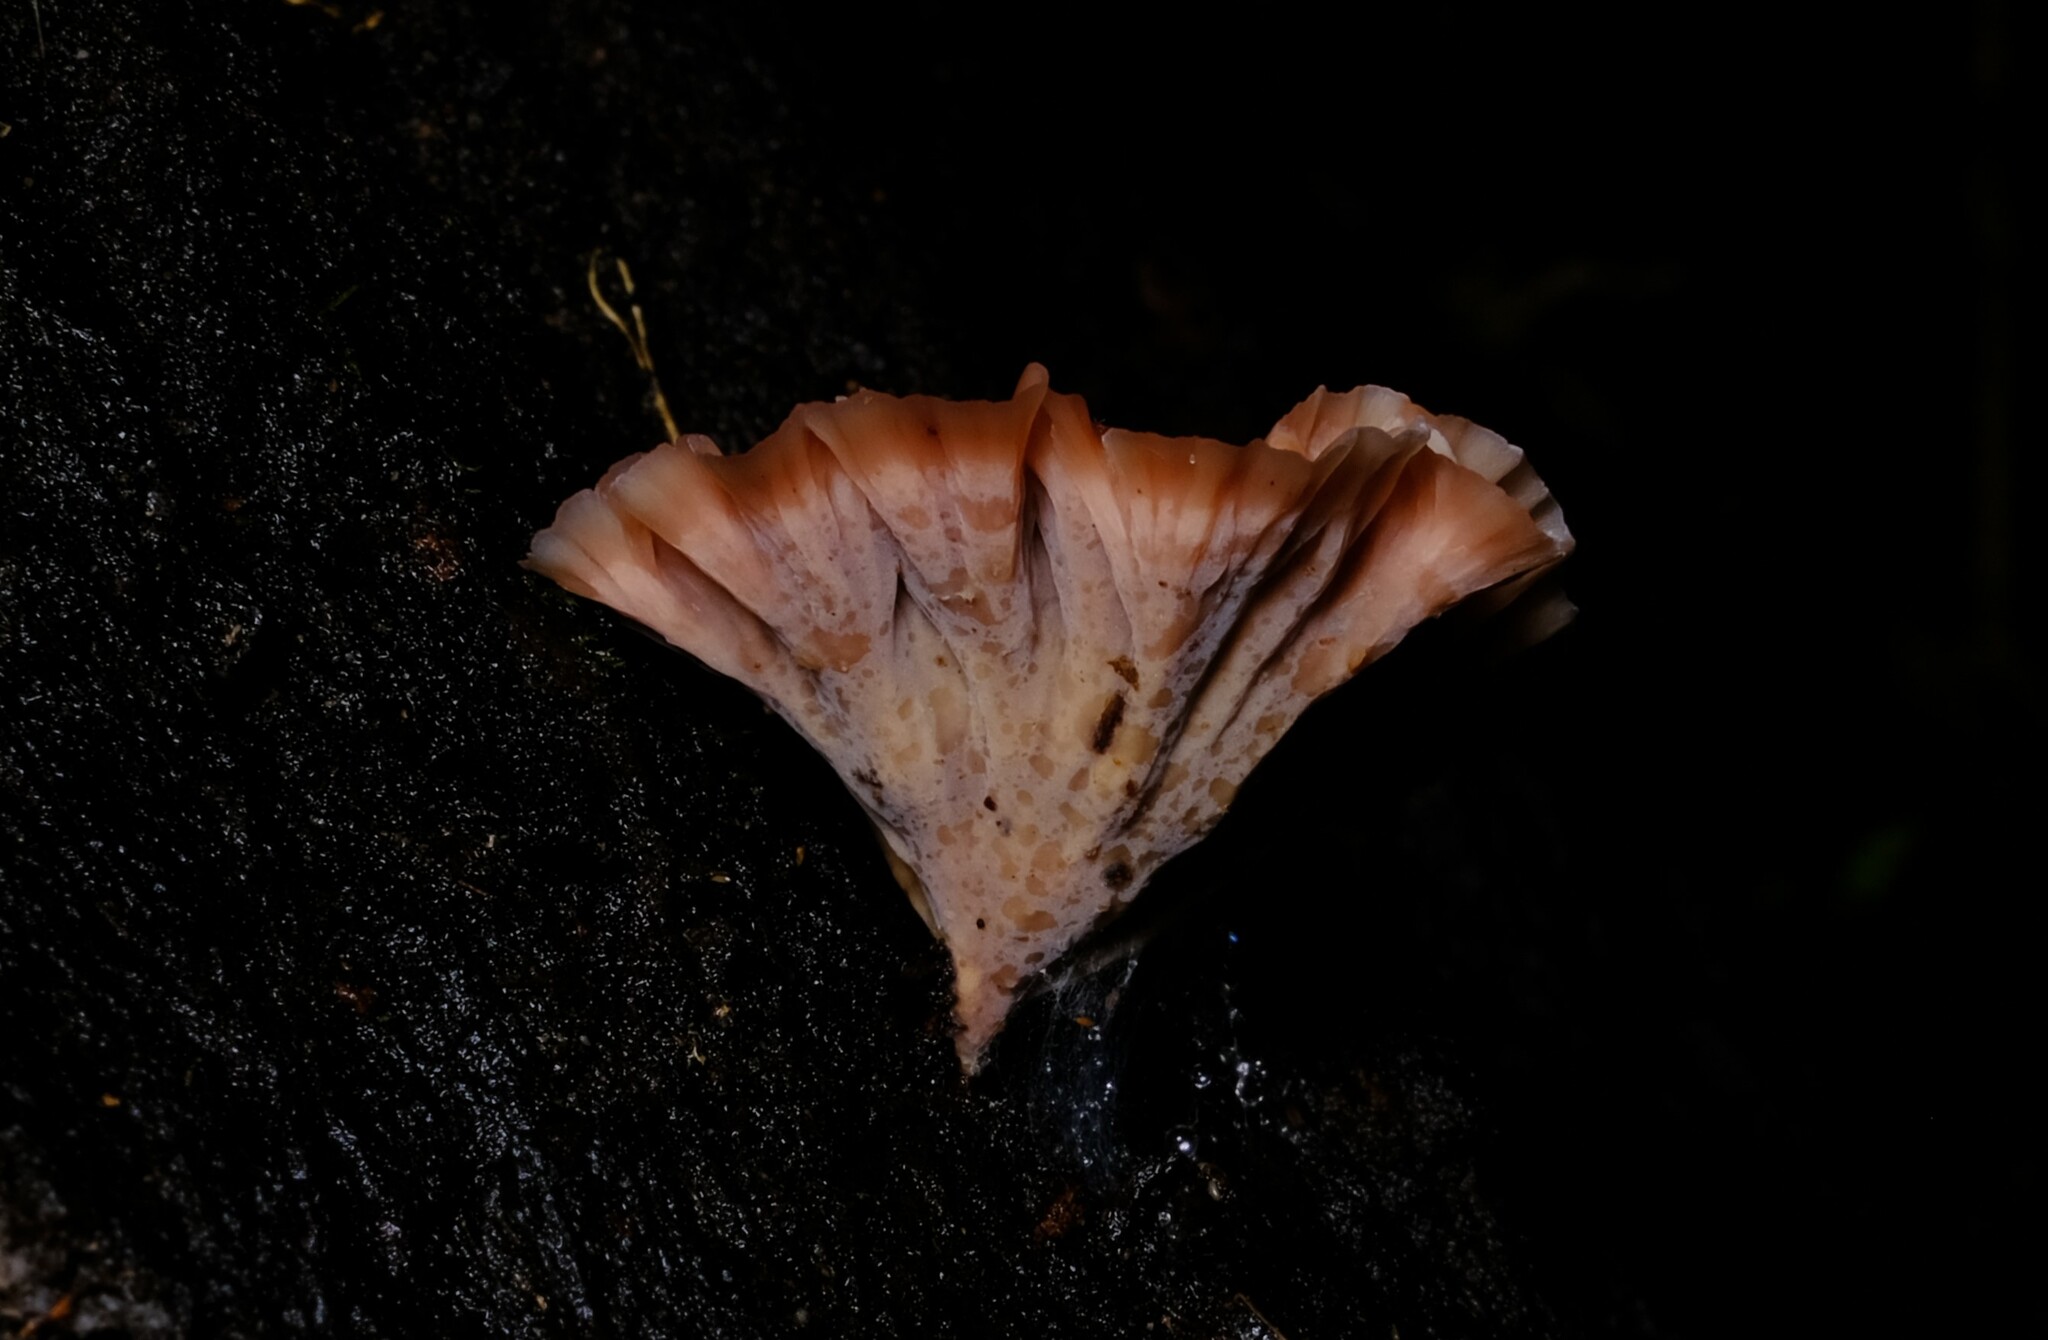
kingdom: Fungi
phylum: Basidiomycota
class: Agaricomycetes
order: Polyporales
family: Podoscyphaceae
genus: Podoscypha
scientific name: Podoscypha petalodes
